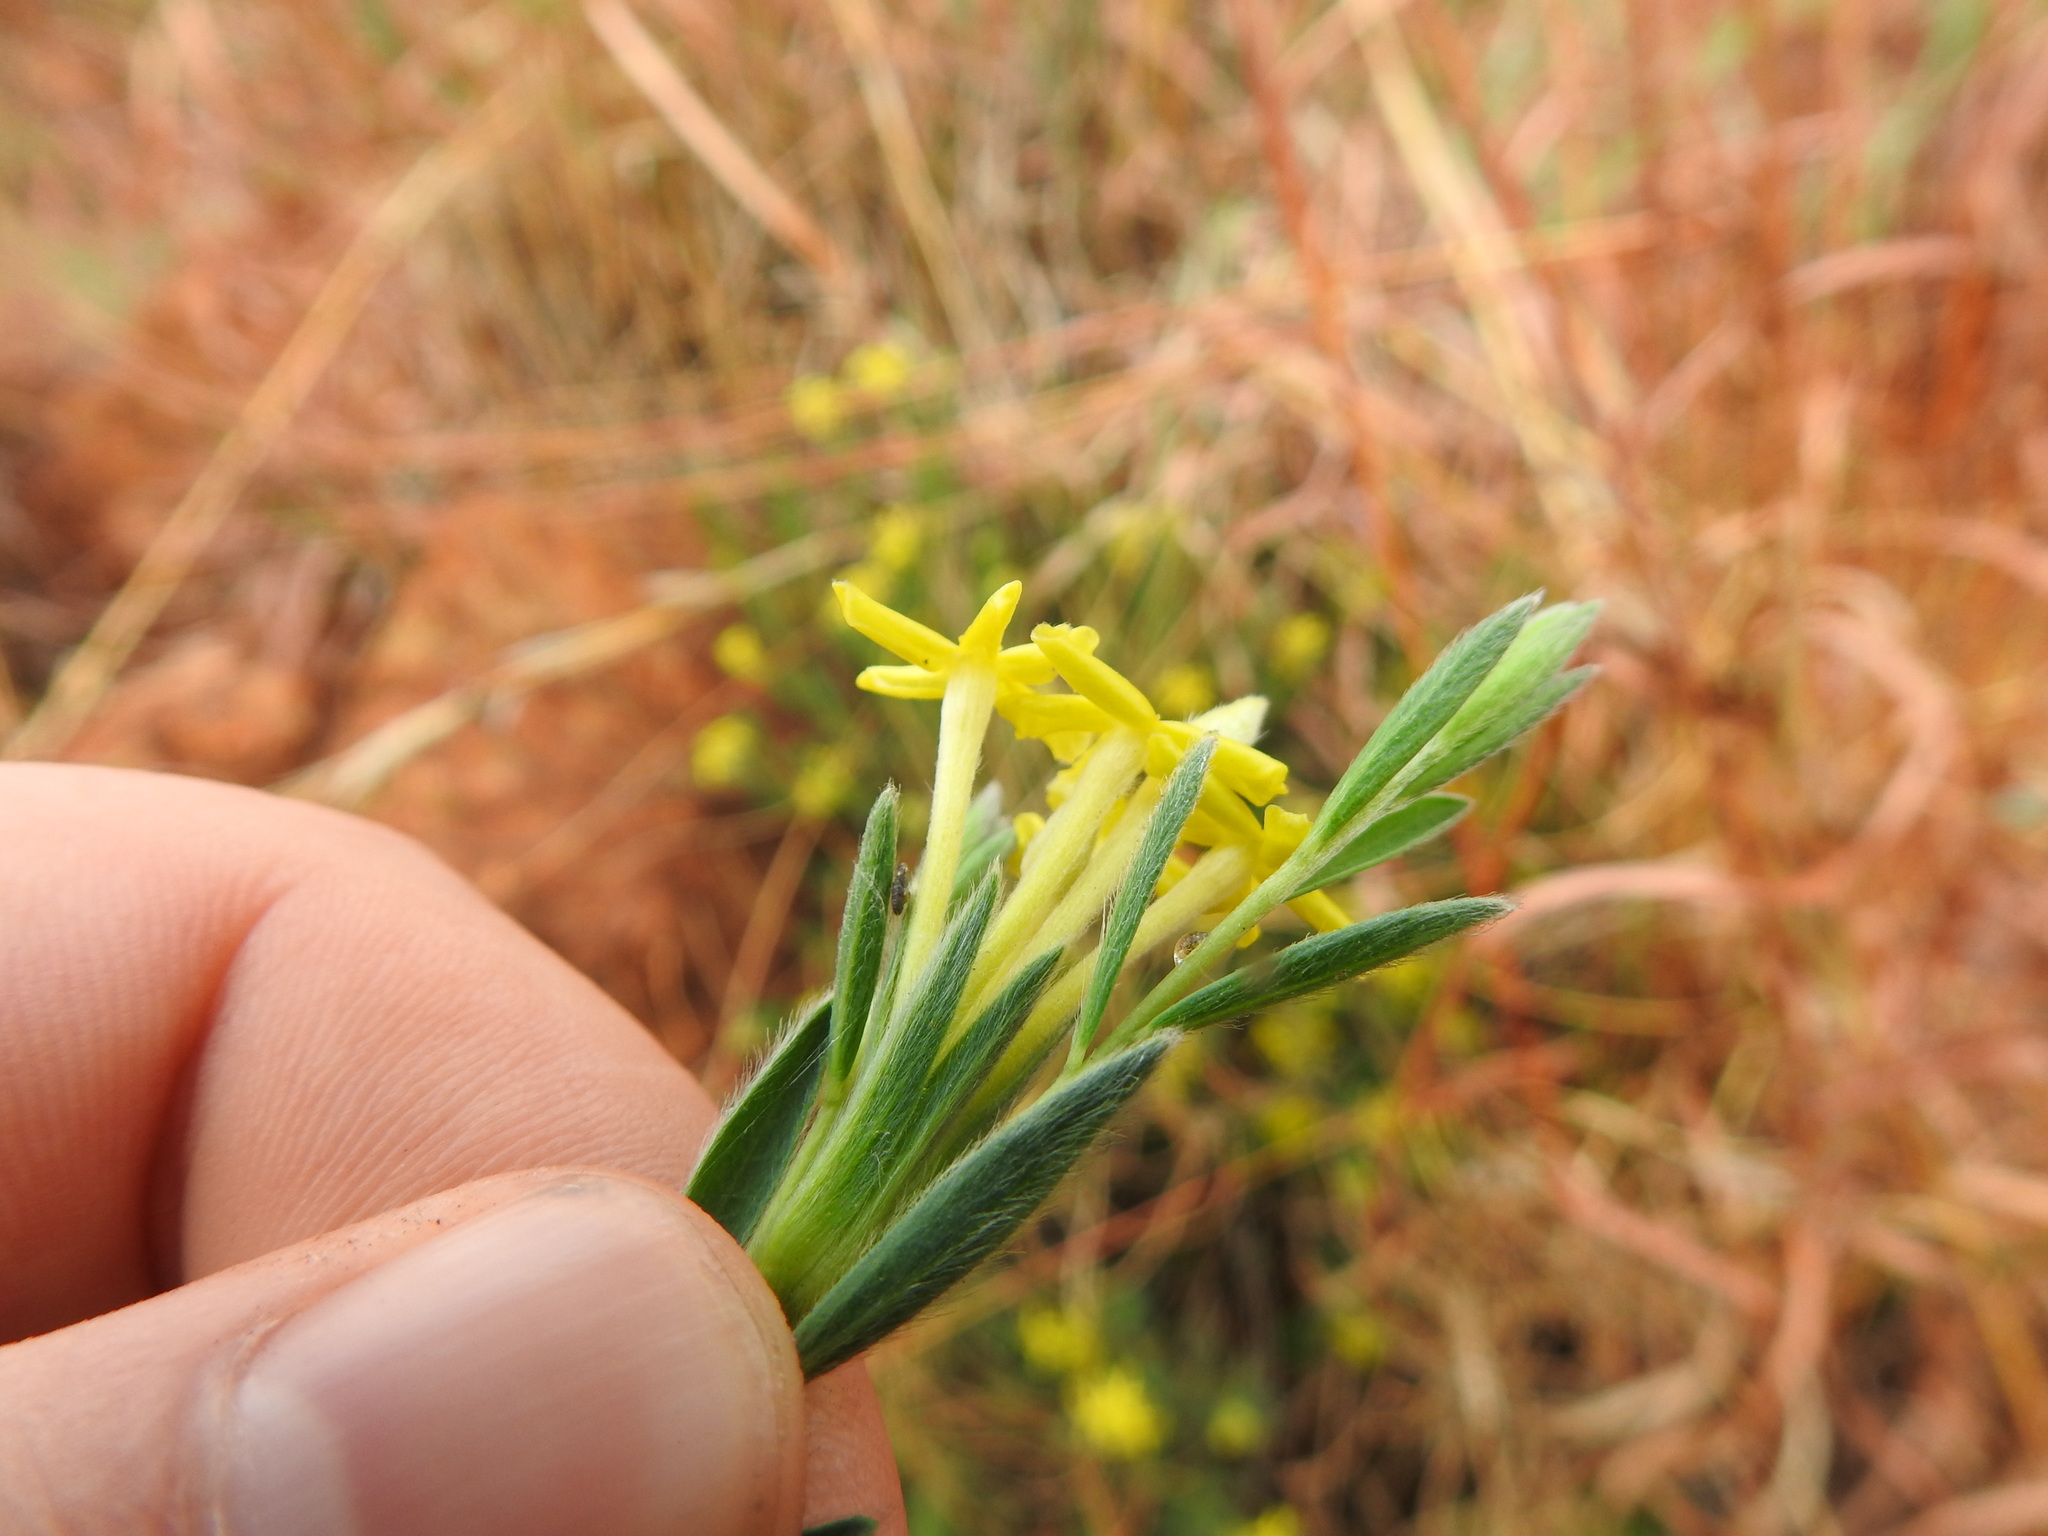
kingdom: Plantae
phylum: Tracheophyta
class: Magnoliopsida
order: Malvales
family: Thymelaeaceae
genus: Gnidia
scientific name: Gnidia caffra
